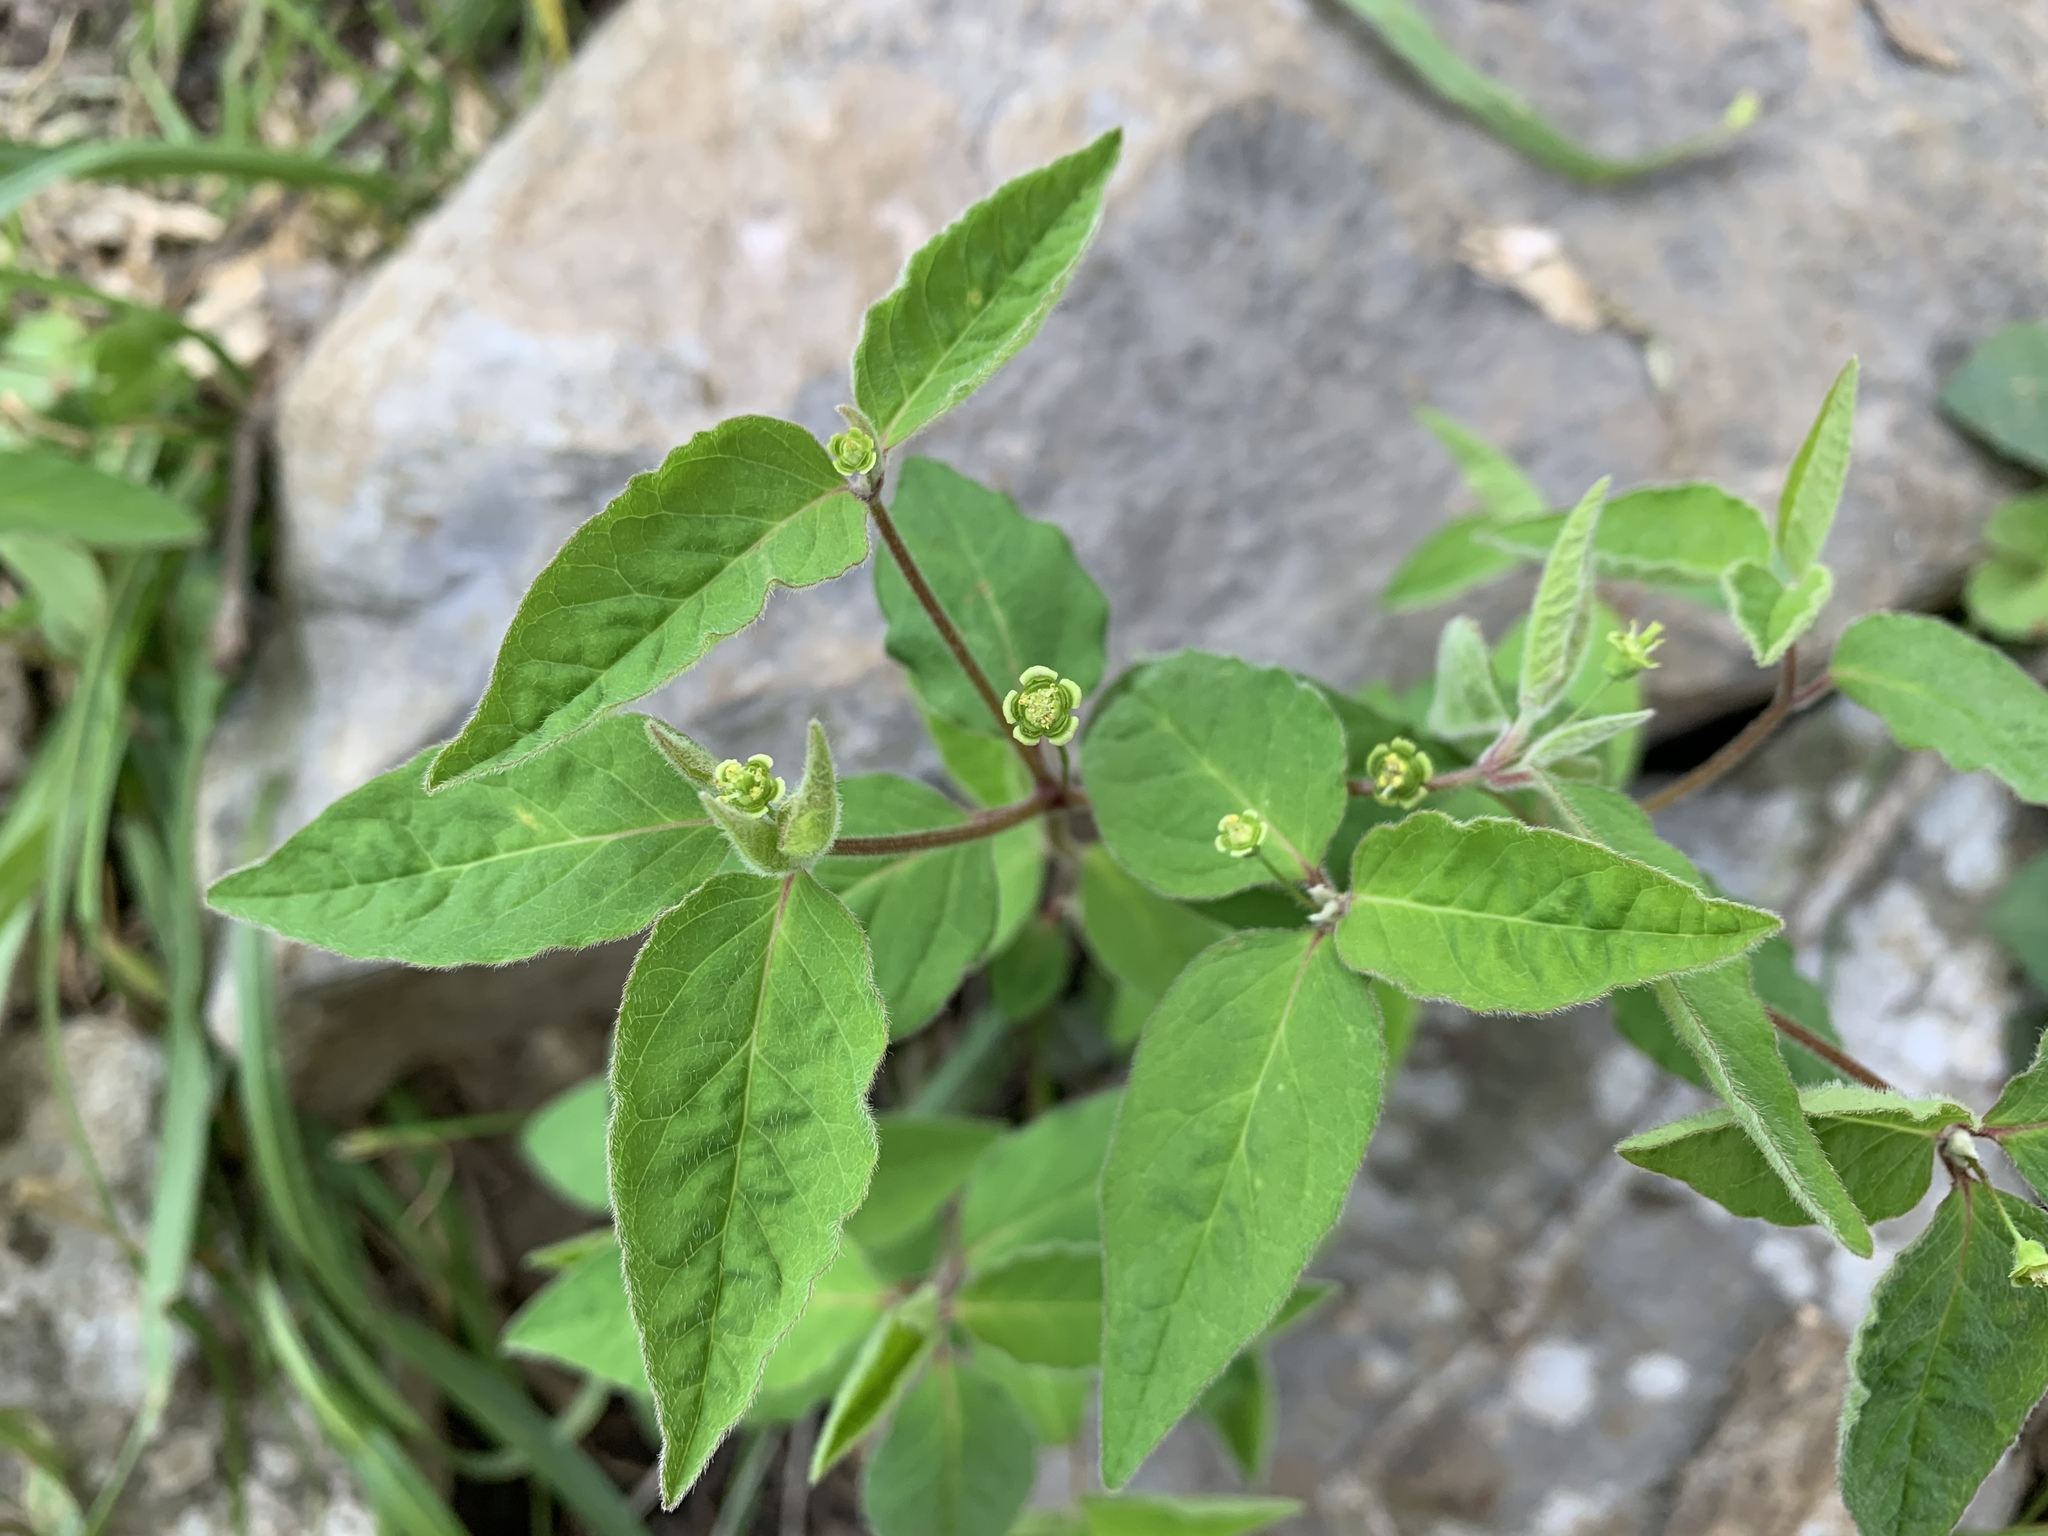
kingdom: Plantae
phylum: Tracheophyta
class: Magnoliopsida
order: Malpighiales
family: Euphorbiaceae
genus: Euphorbia
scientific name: Euphorbia mercurialina
